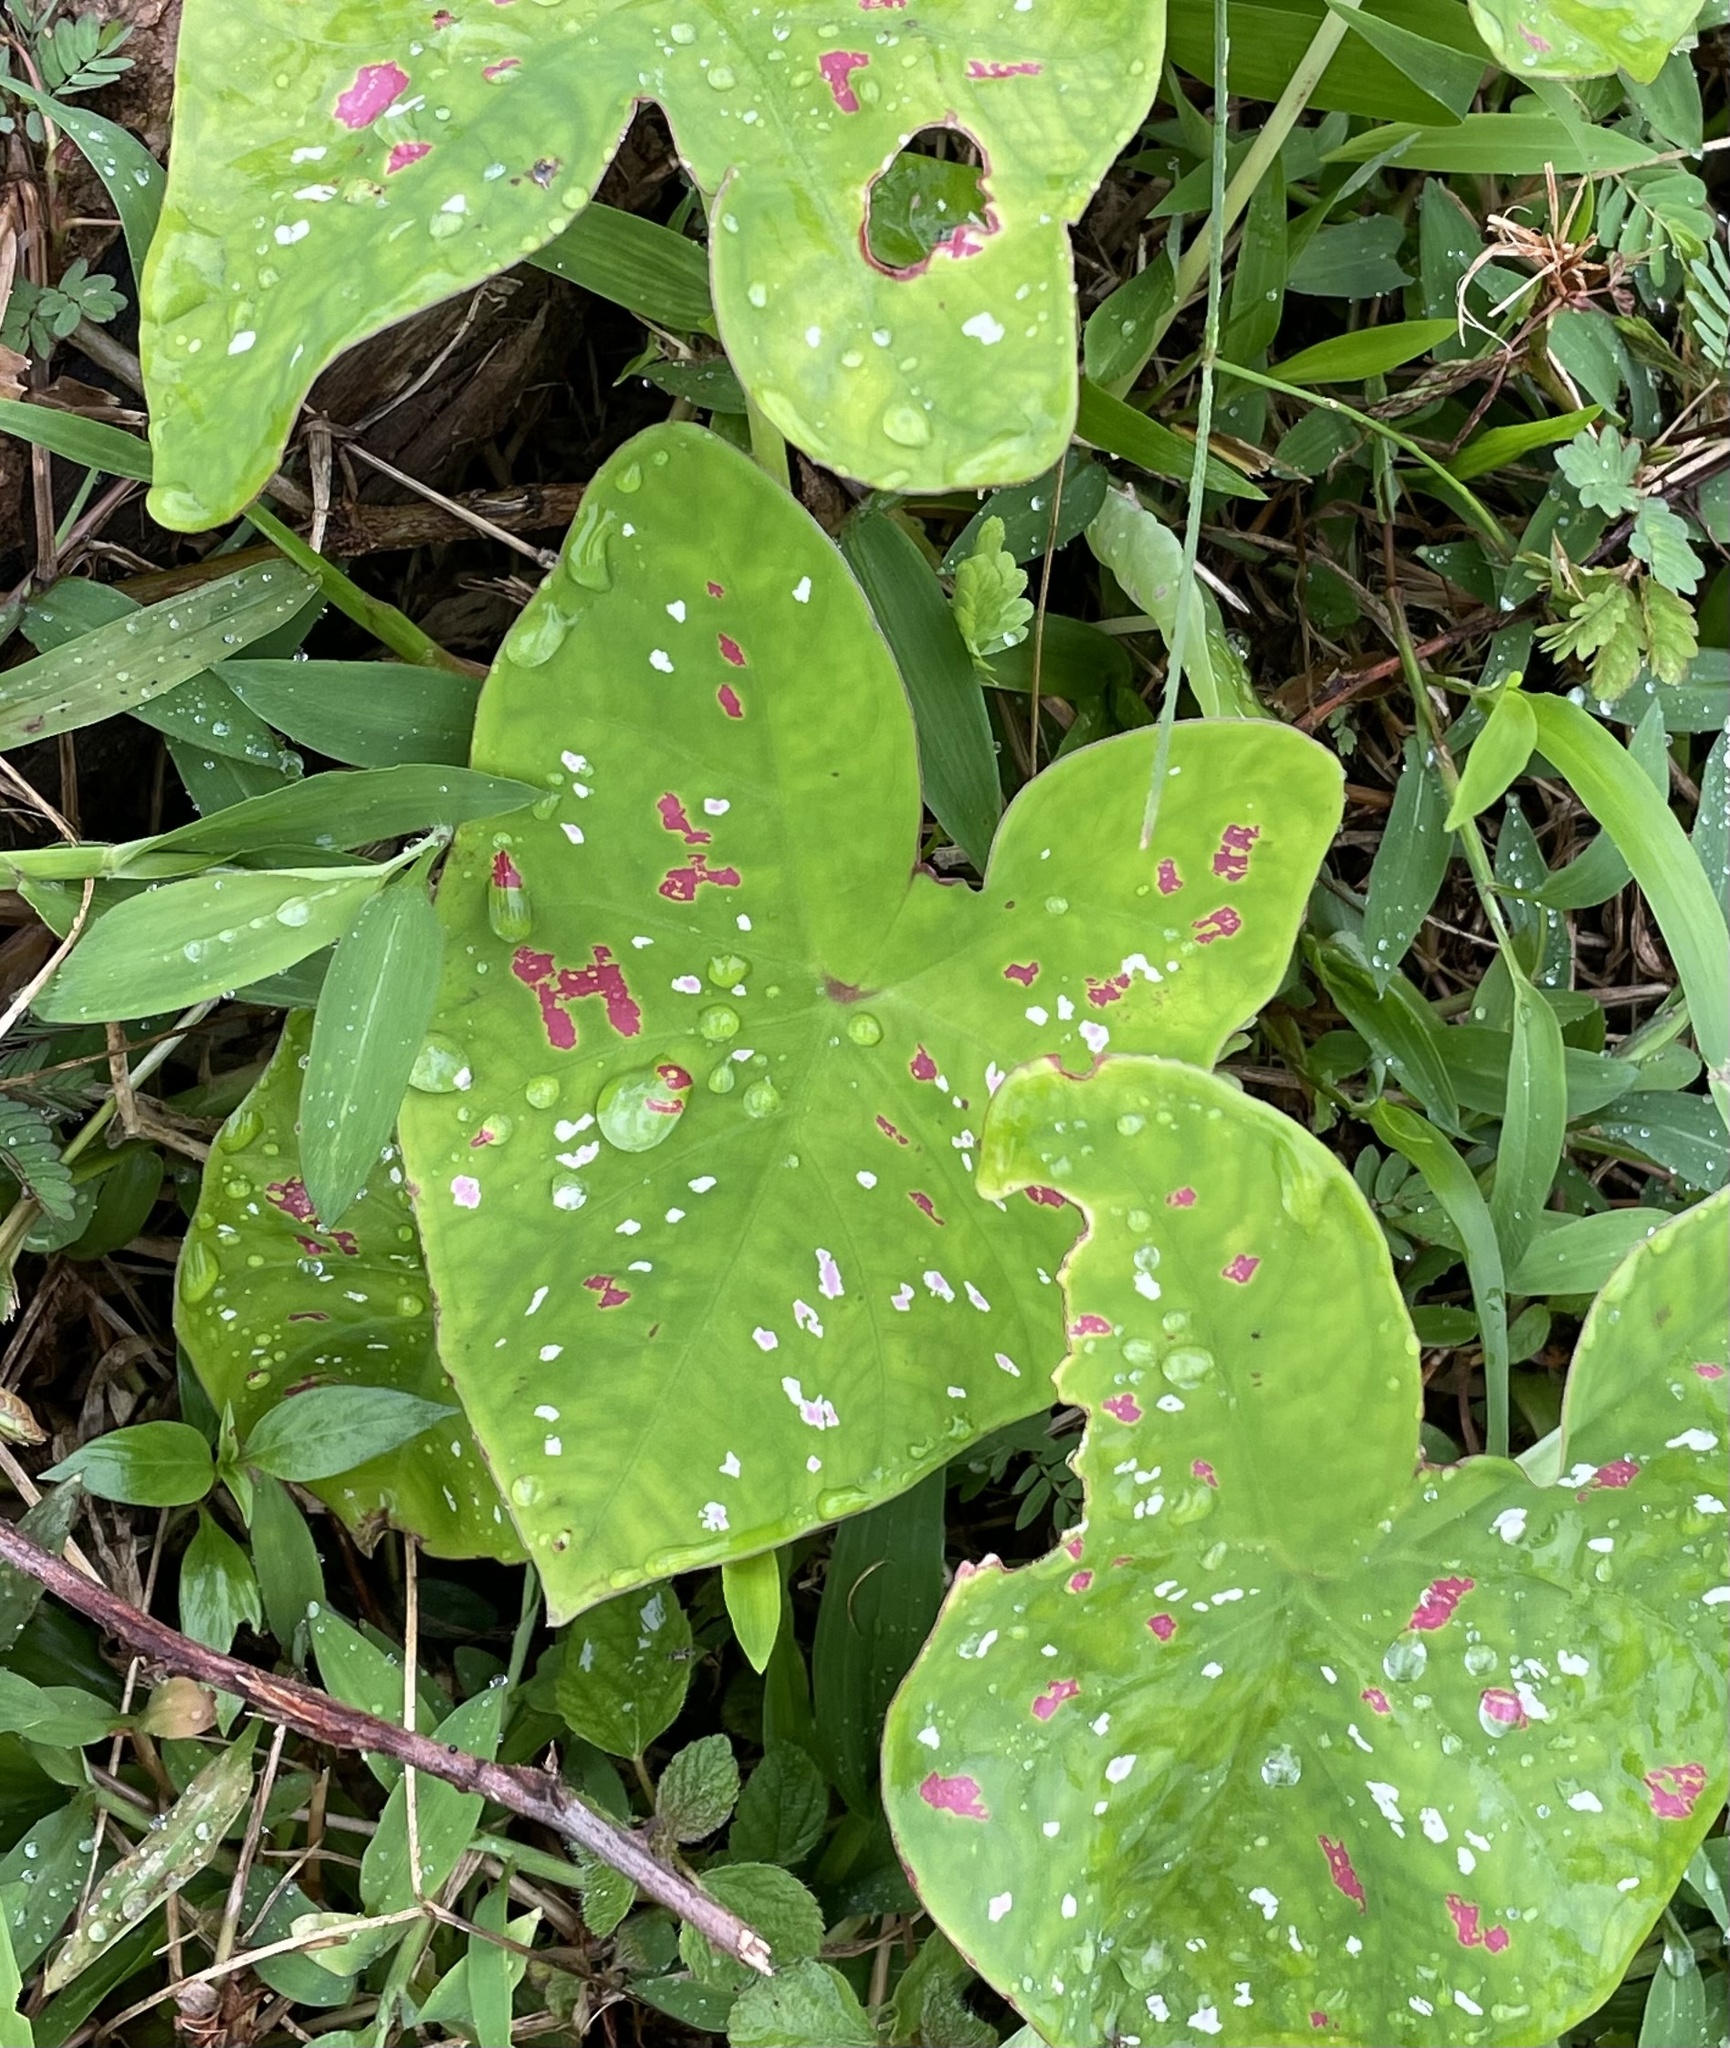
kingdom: Plantae
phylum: Tracheophyta
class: Liliopsida
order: Alismatales
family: Araceae
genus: Caladium
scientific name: Caladium bicolor
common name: Artist's pallet
